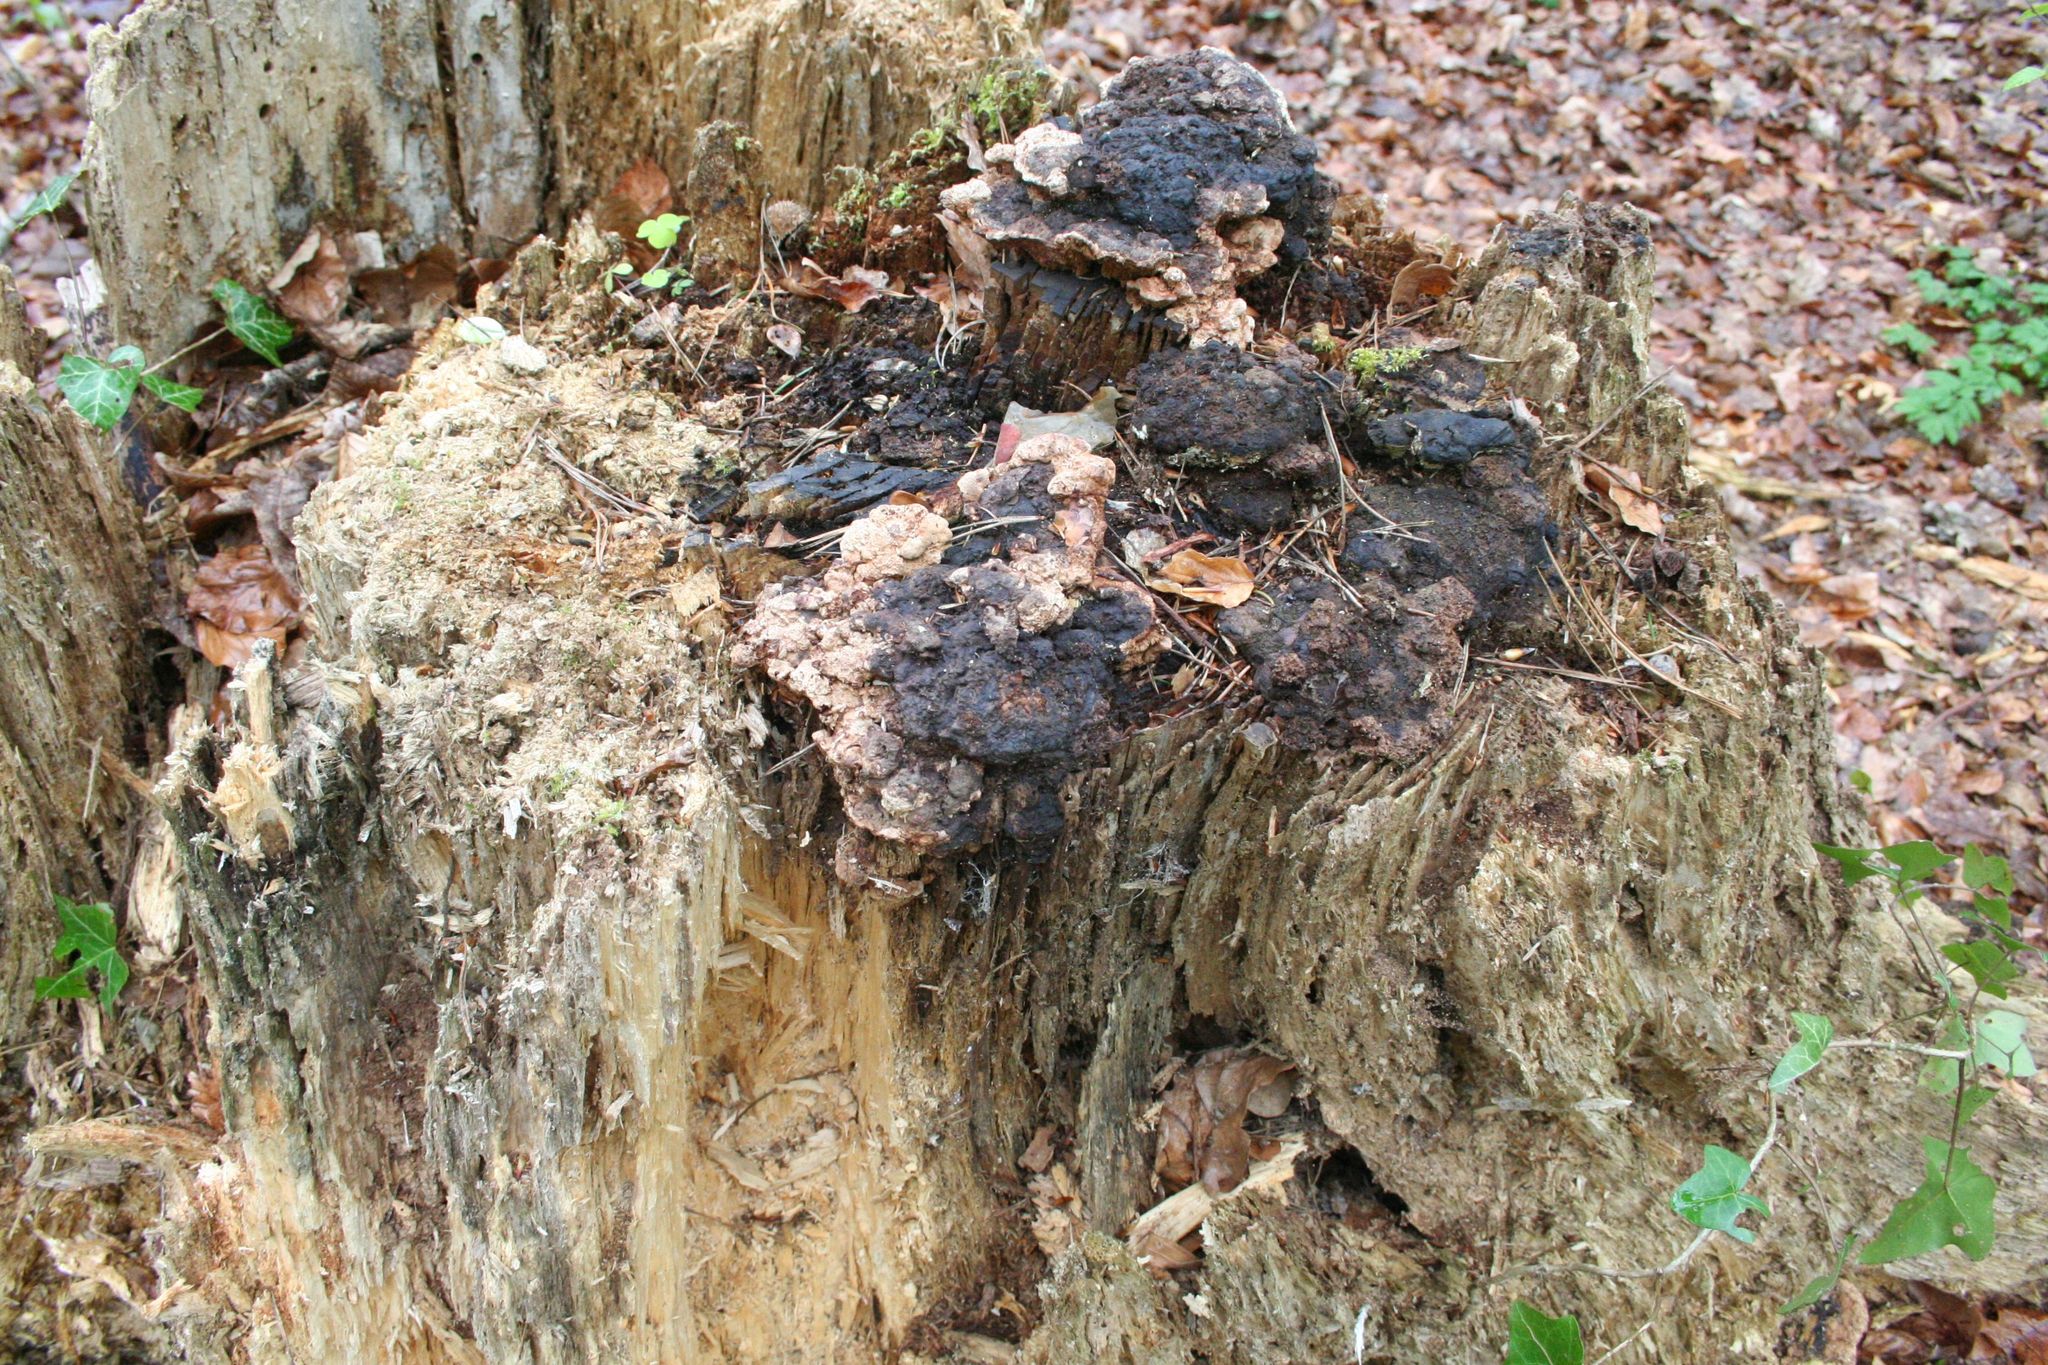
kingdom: Fungi
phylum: Basidiomycota
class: Agaricomycetes
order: Gloeophyllales
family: Gloeophyllaceae
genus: Gloeophyllum
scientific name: Gloeophyllum odoratum
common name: Anise mazegill
